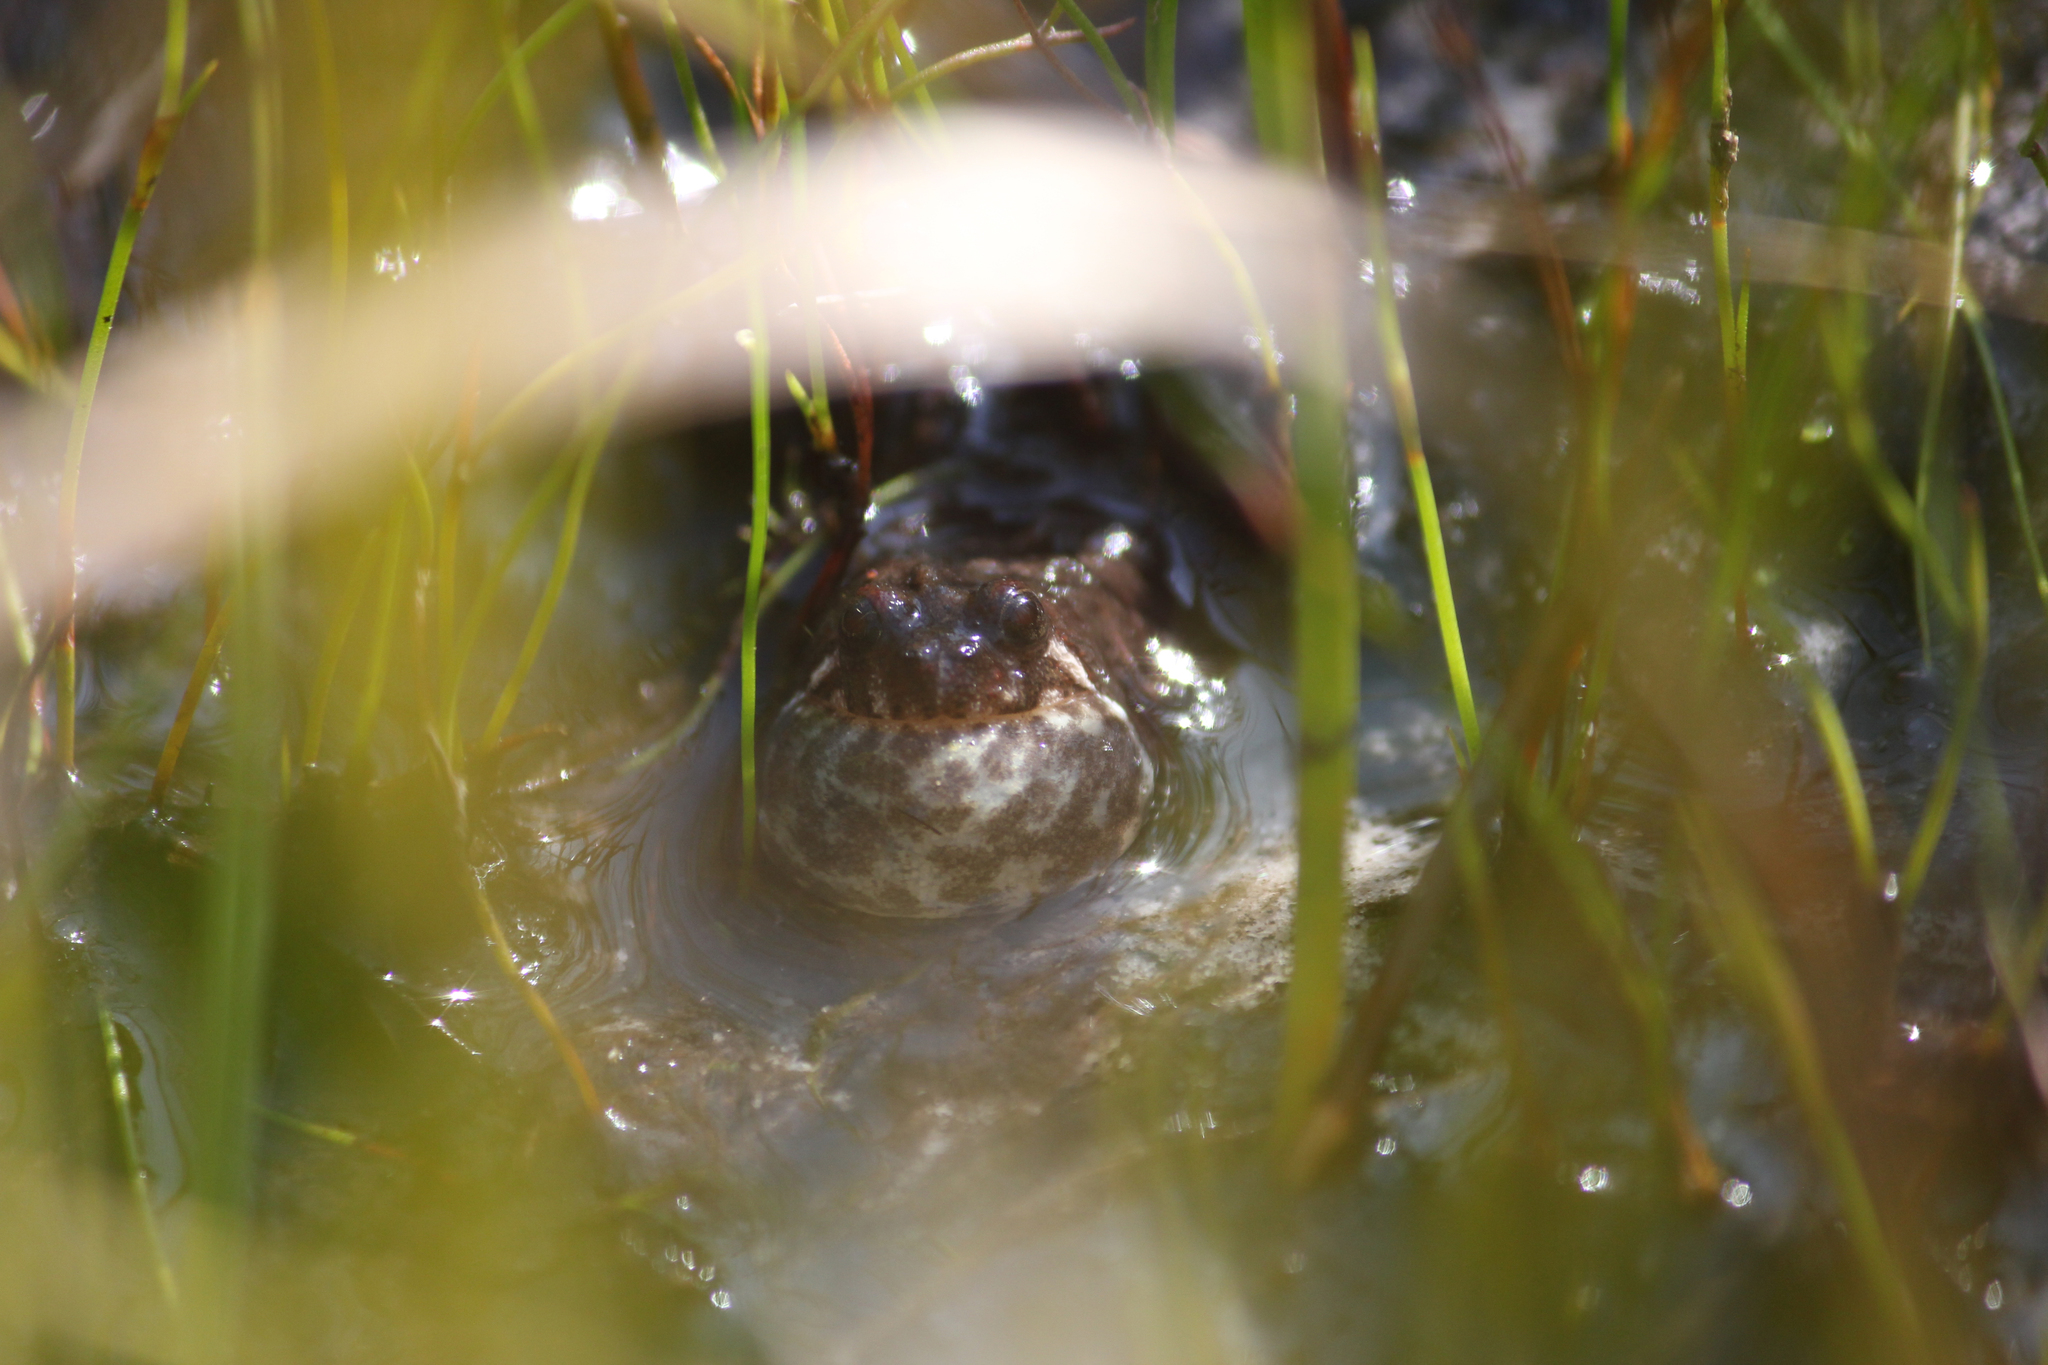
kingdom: Animalia
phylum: Chordata
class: Amphibia
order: Anura
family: Pyxicephalidae
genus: Poyntonia
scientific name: Poyntonia paludicola
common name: Montane marsh frog
